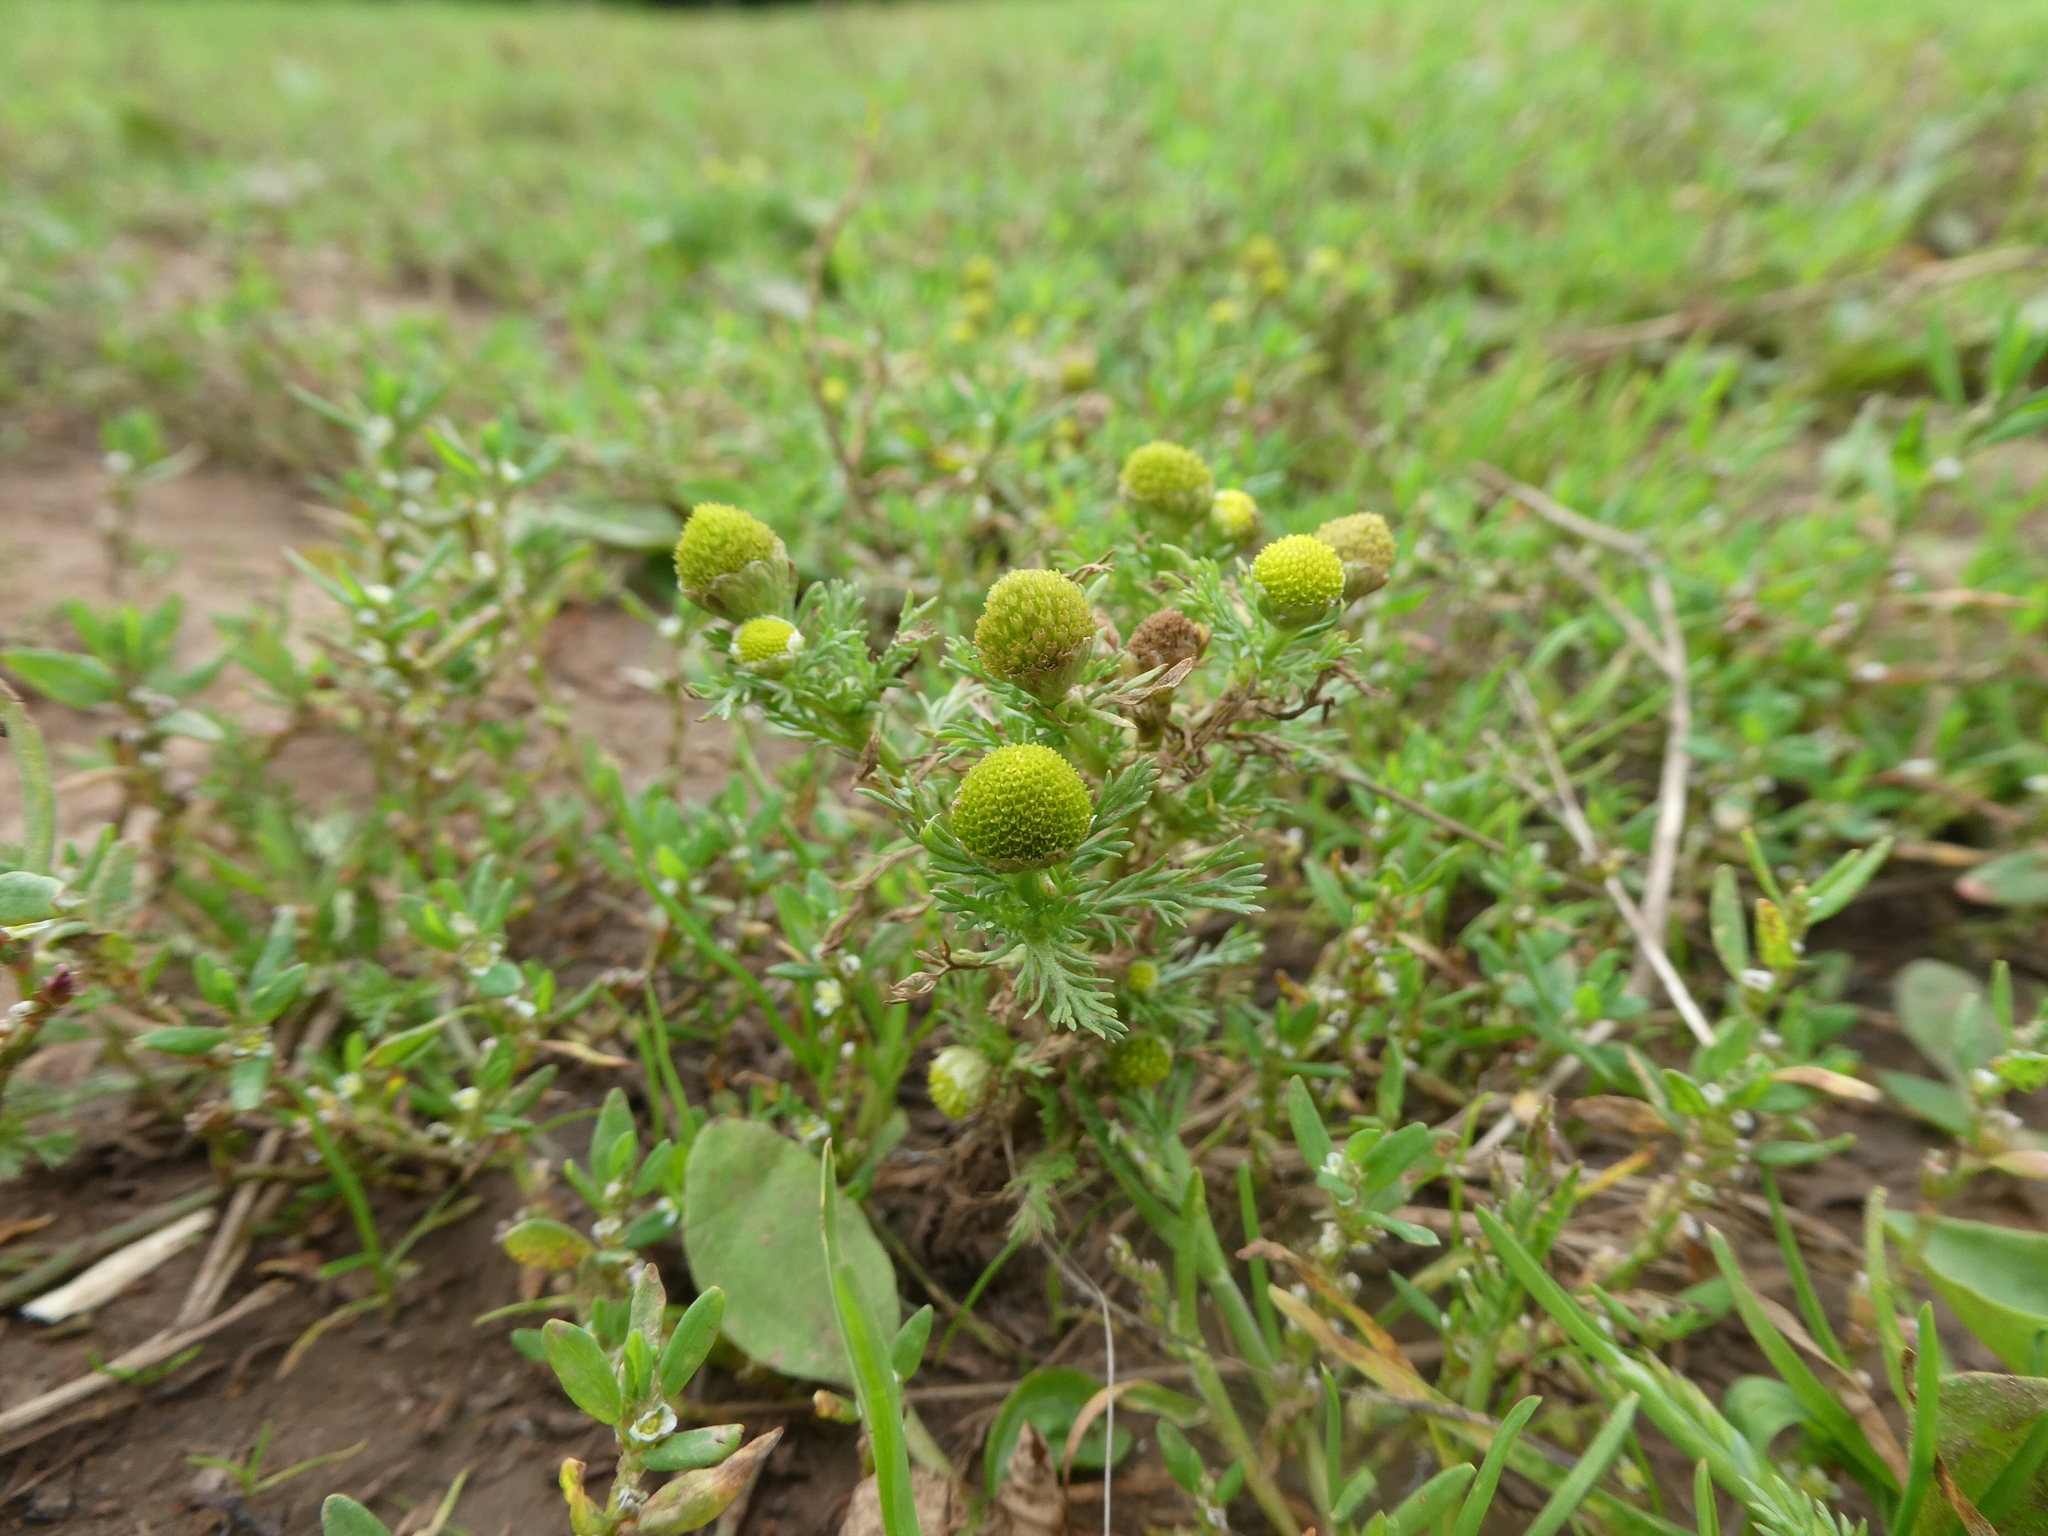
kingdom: Plantae
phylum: Tracheophyta
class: Magnoliopsida
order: Asterales
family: Asteraceae
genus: Matricaria
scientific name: Matricaria discoidea
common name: Disc mayweed
